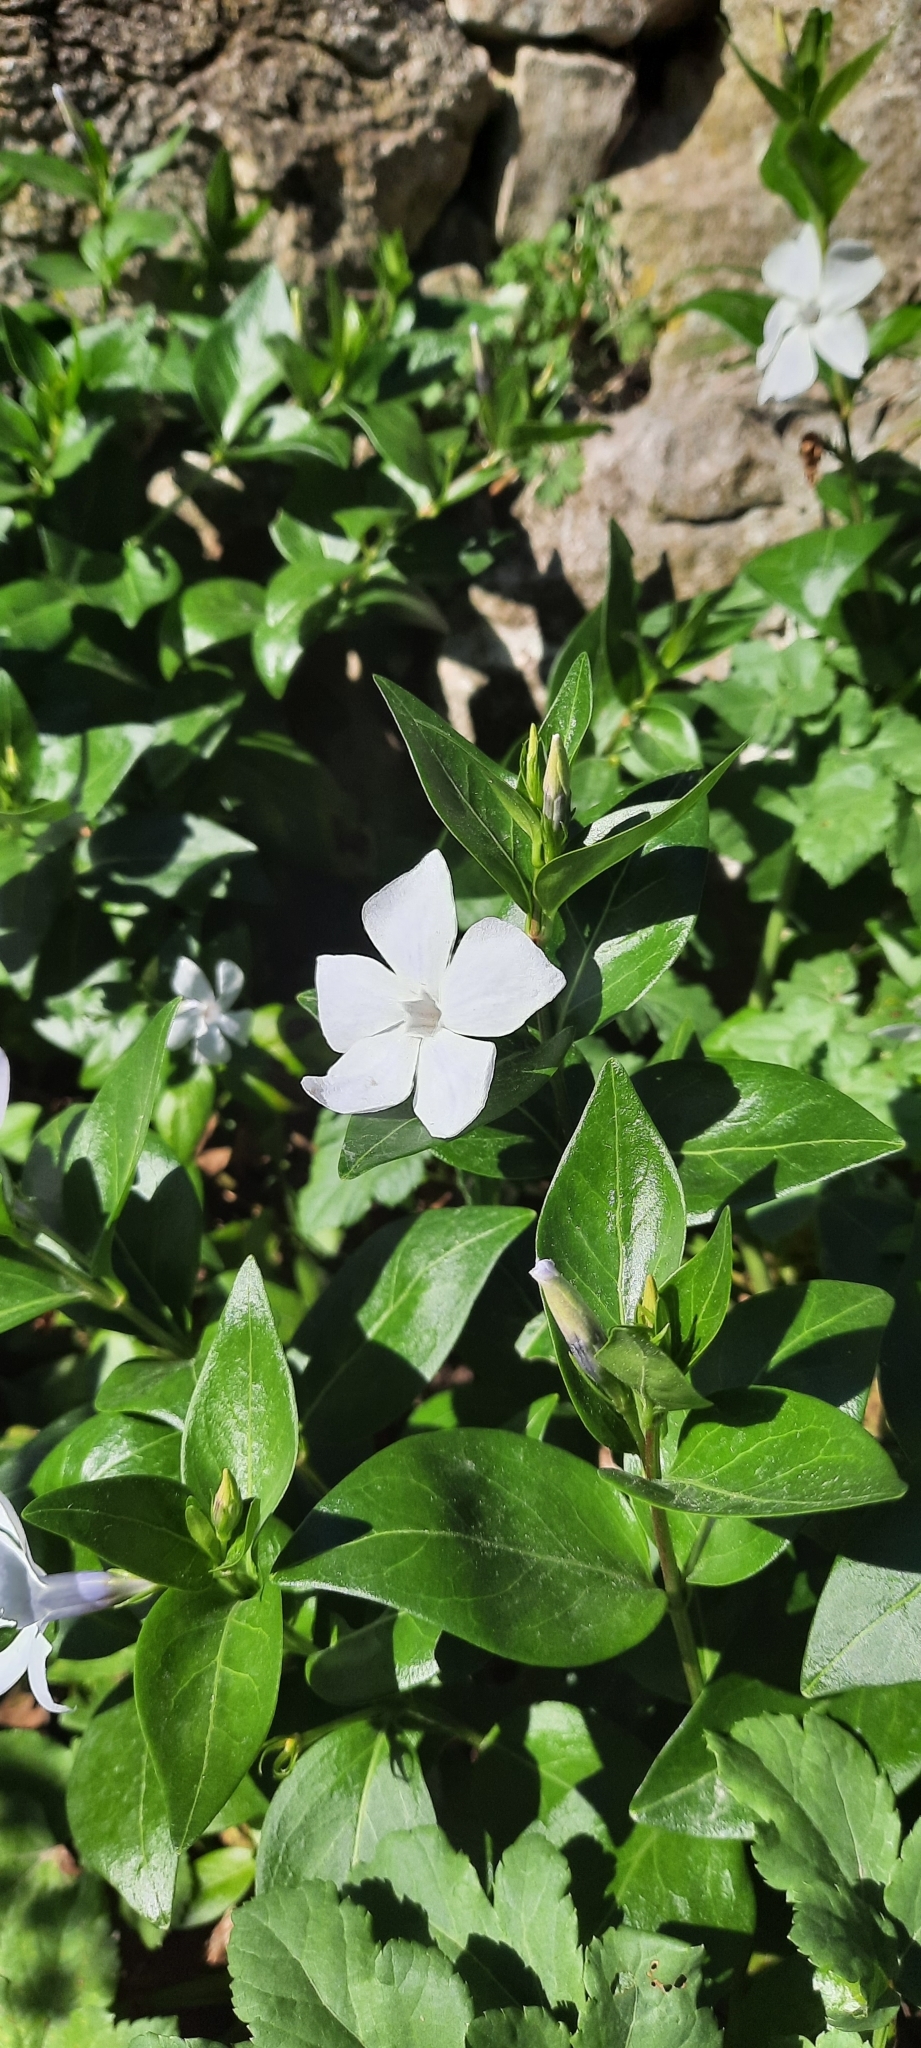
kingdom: Plantae
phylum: Tracheophyta
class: Magnoliopsida
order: Gentianales
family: Apocynaceae
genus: Vinca
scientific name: Vinca difformis
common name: Intermediate periwinkle
